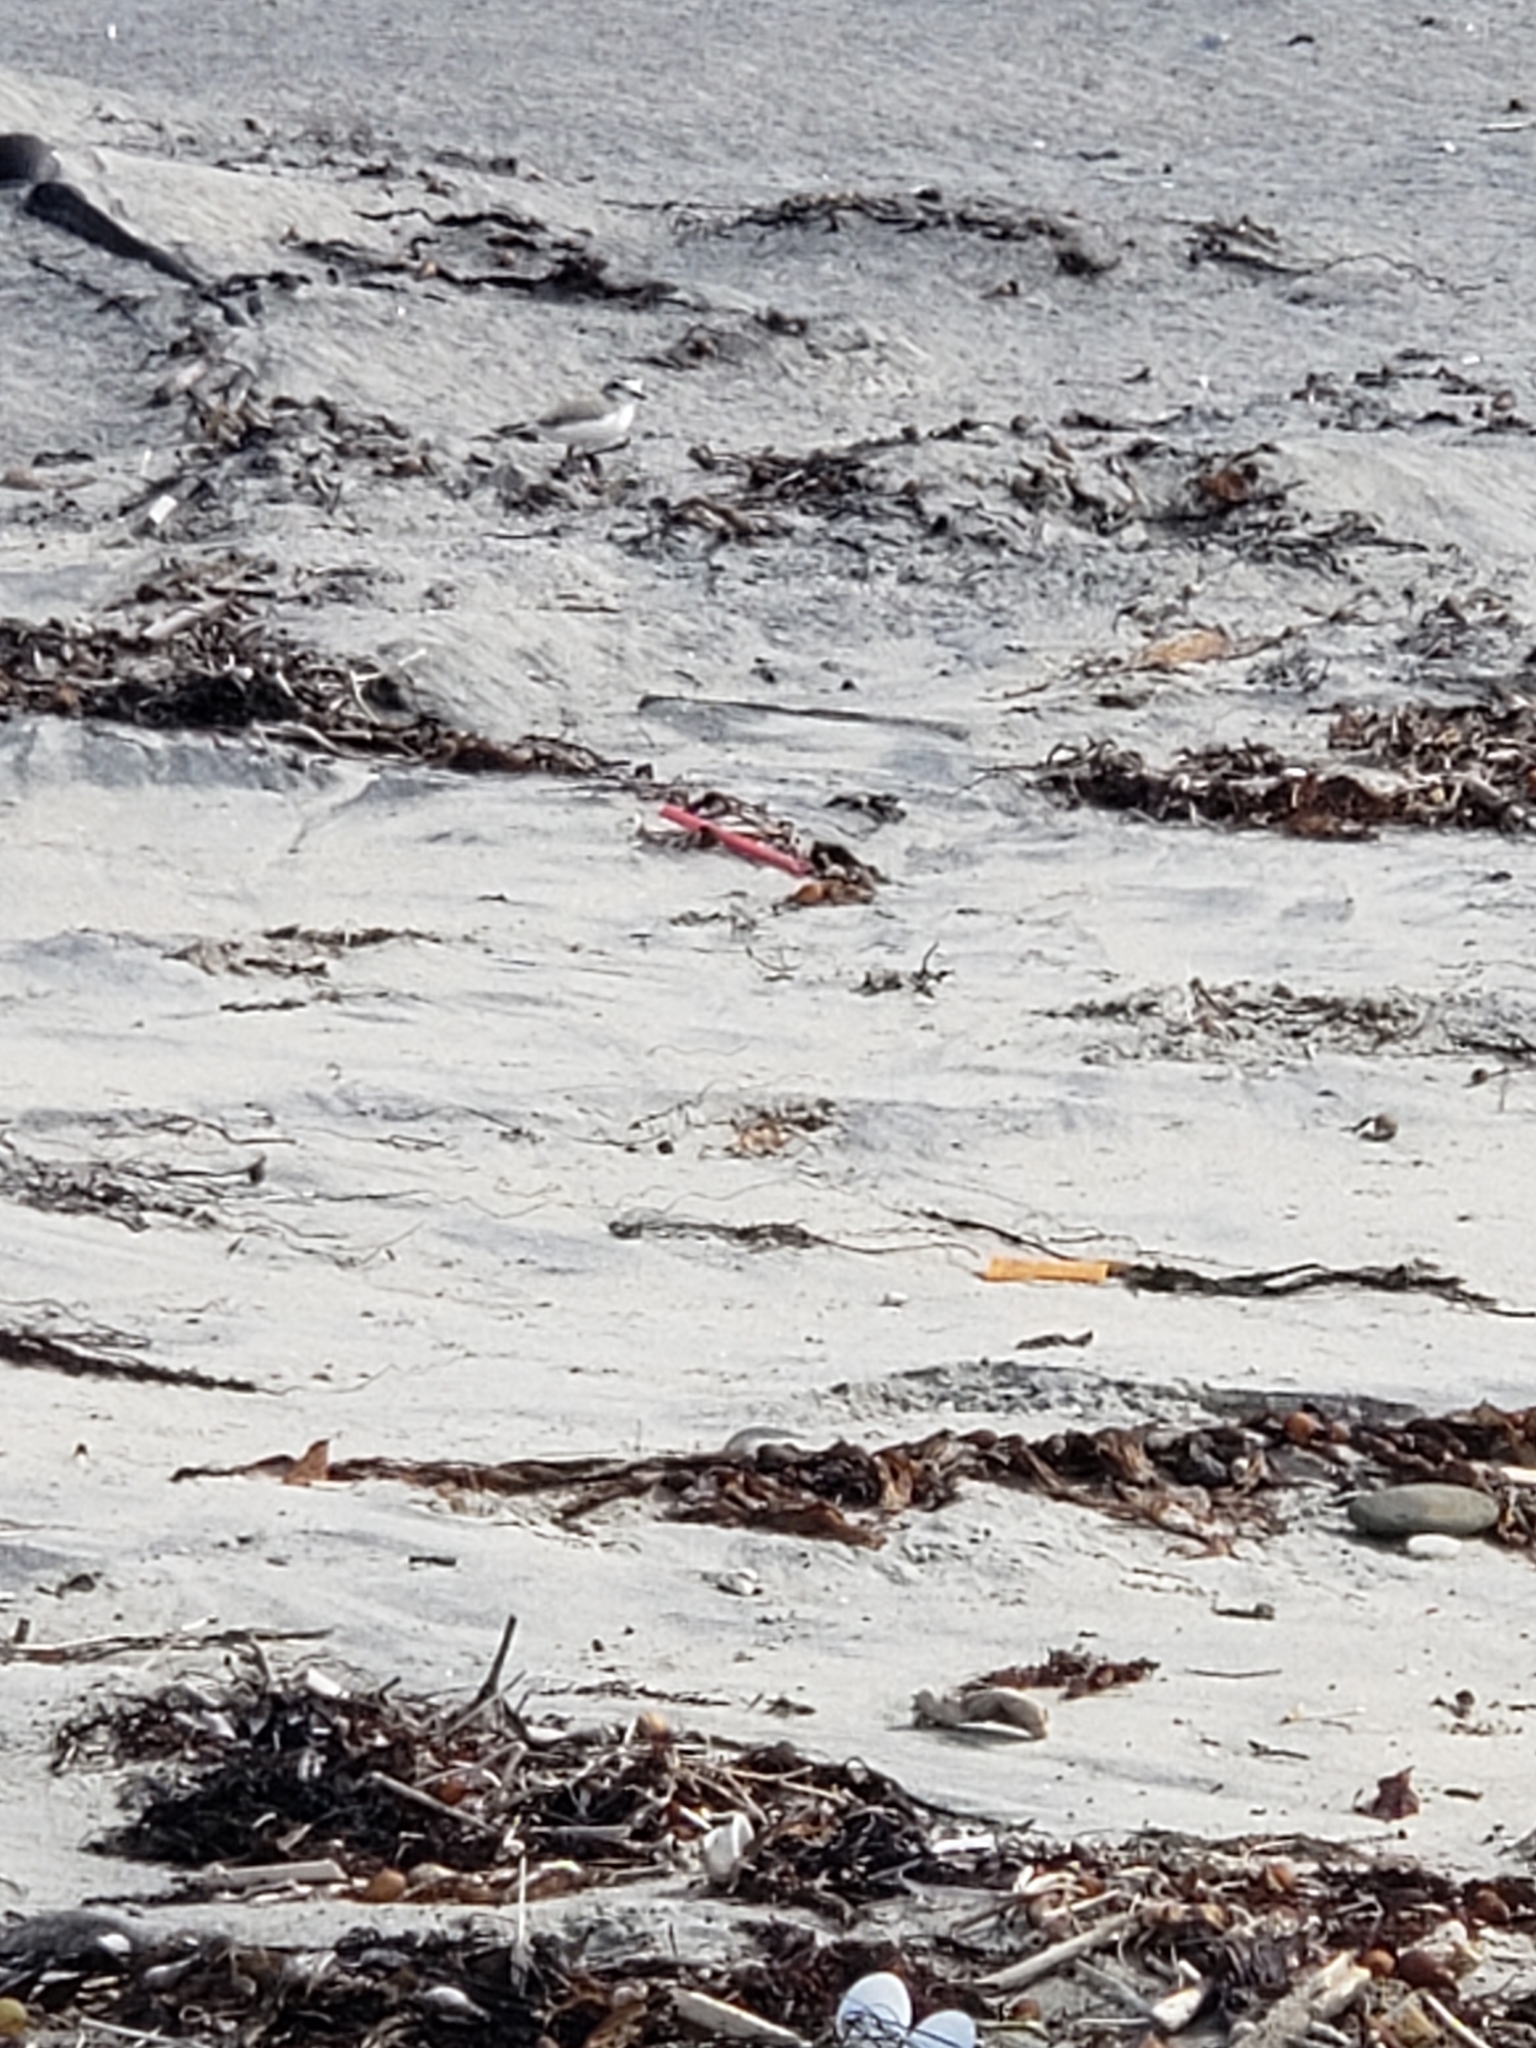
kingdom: Animalia
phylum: Chordata
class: Aves
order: Charadriiformes
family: Charadriidae
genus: Anarhynchus
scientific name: Anarhynchus
